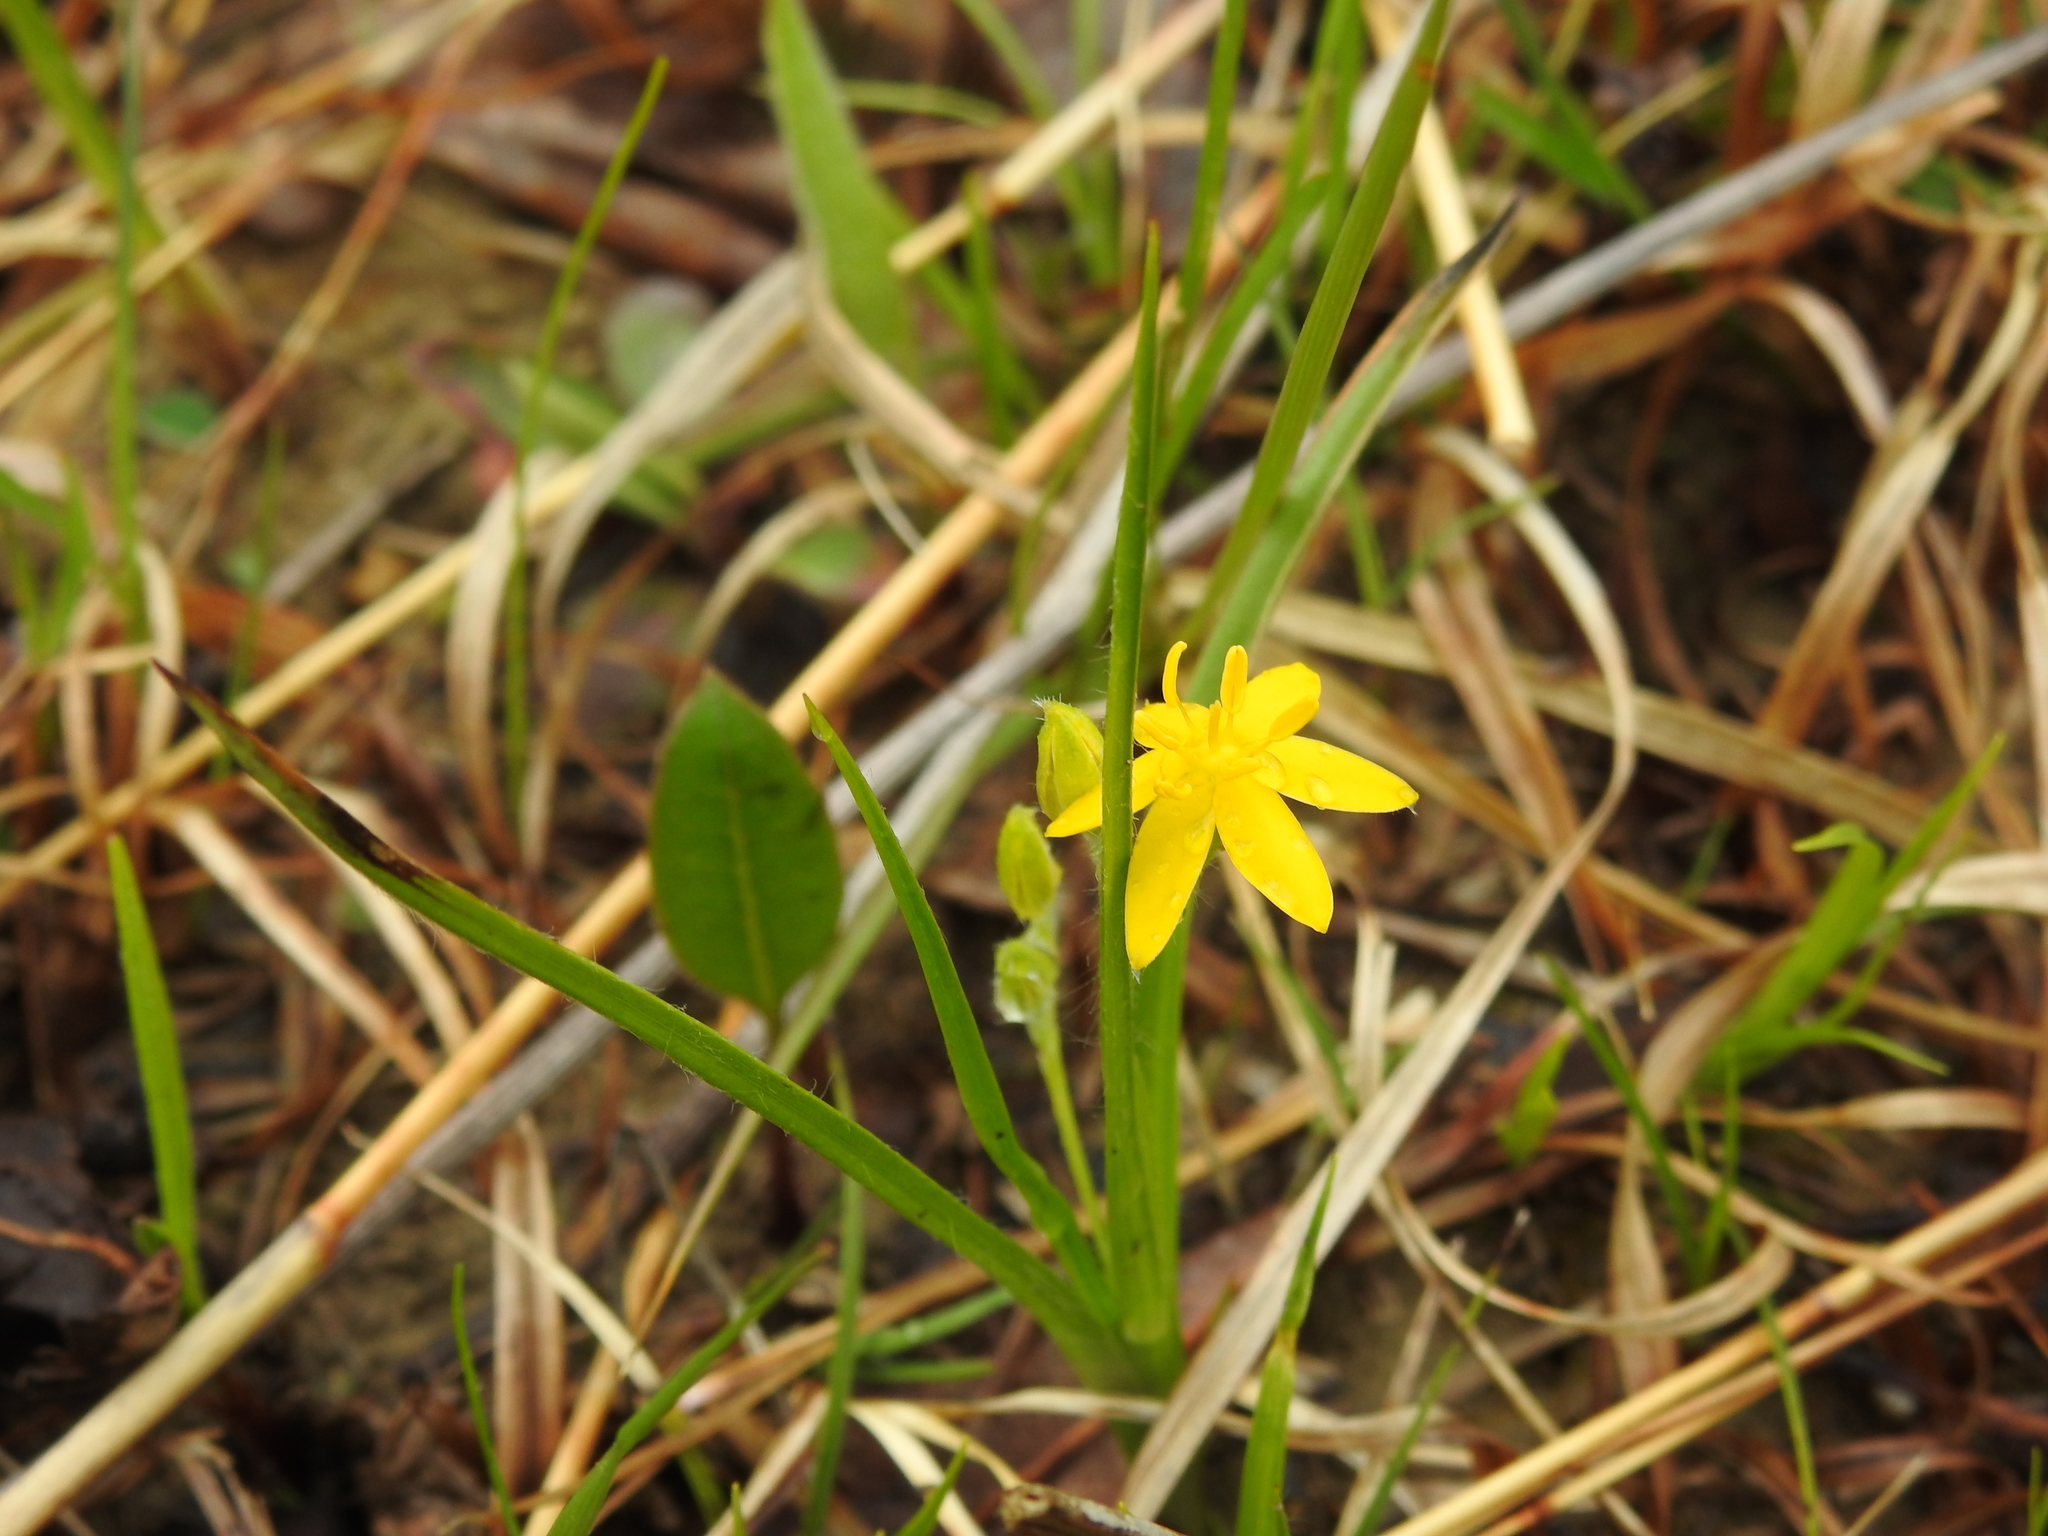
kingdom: Plantae
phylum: Tracheophyta
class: Liliopsida
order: Asparagales
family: Hypoxidaceae
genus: Hypoxis
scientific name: Hypoxis hirsuta
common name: Common goldstar
